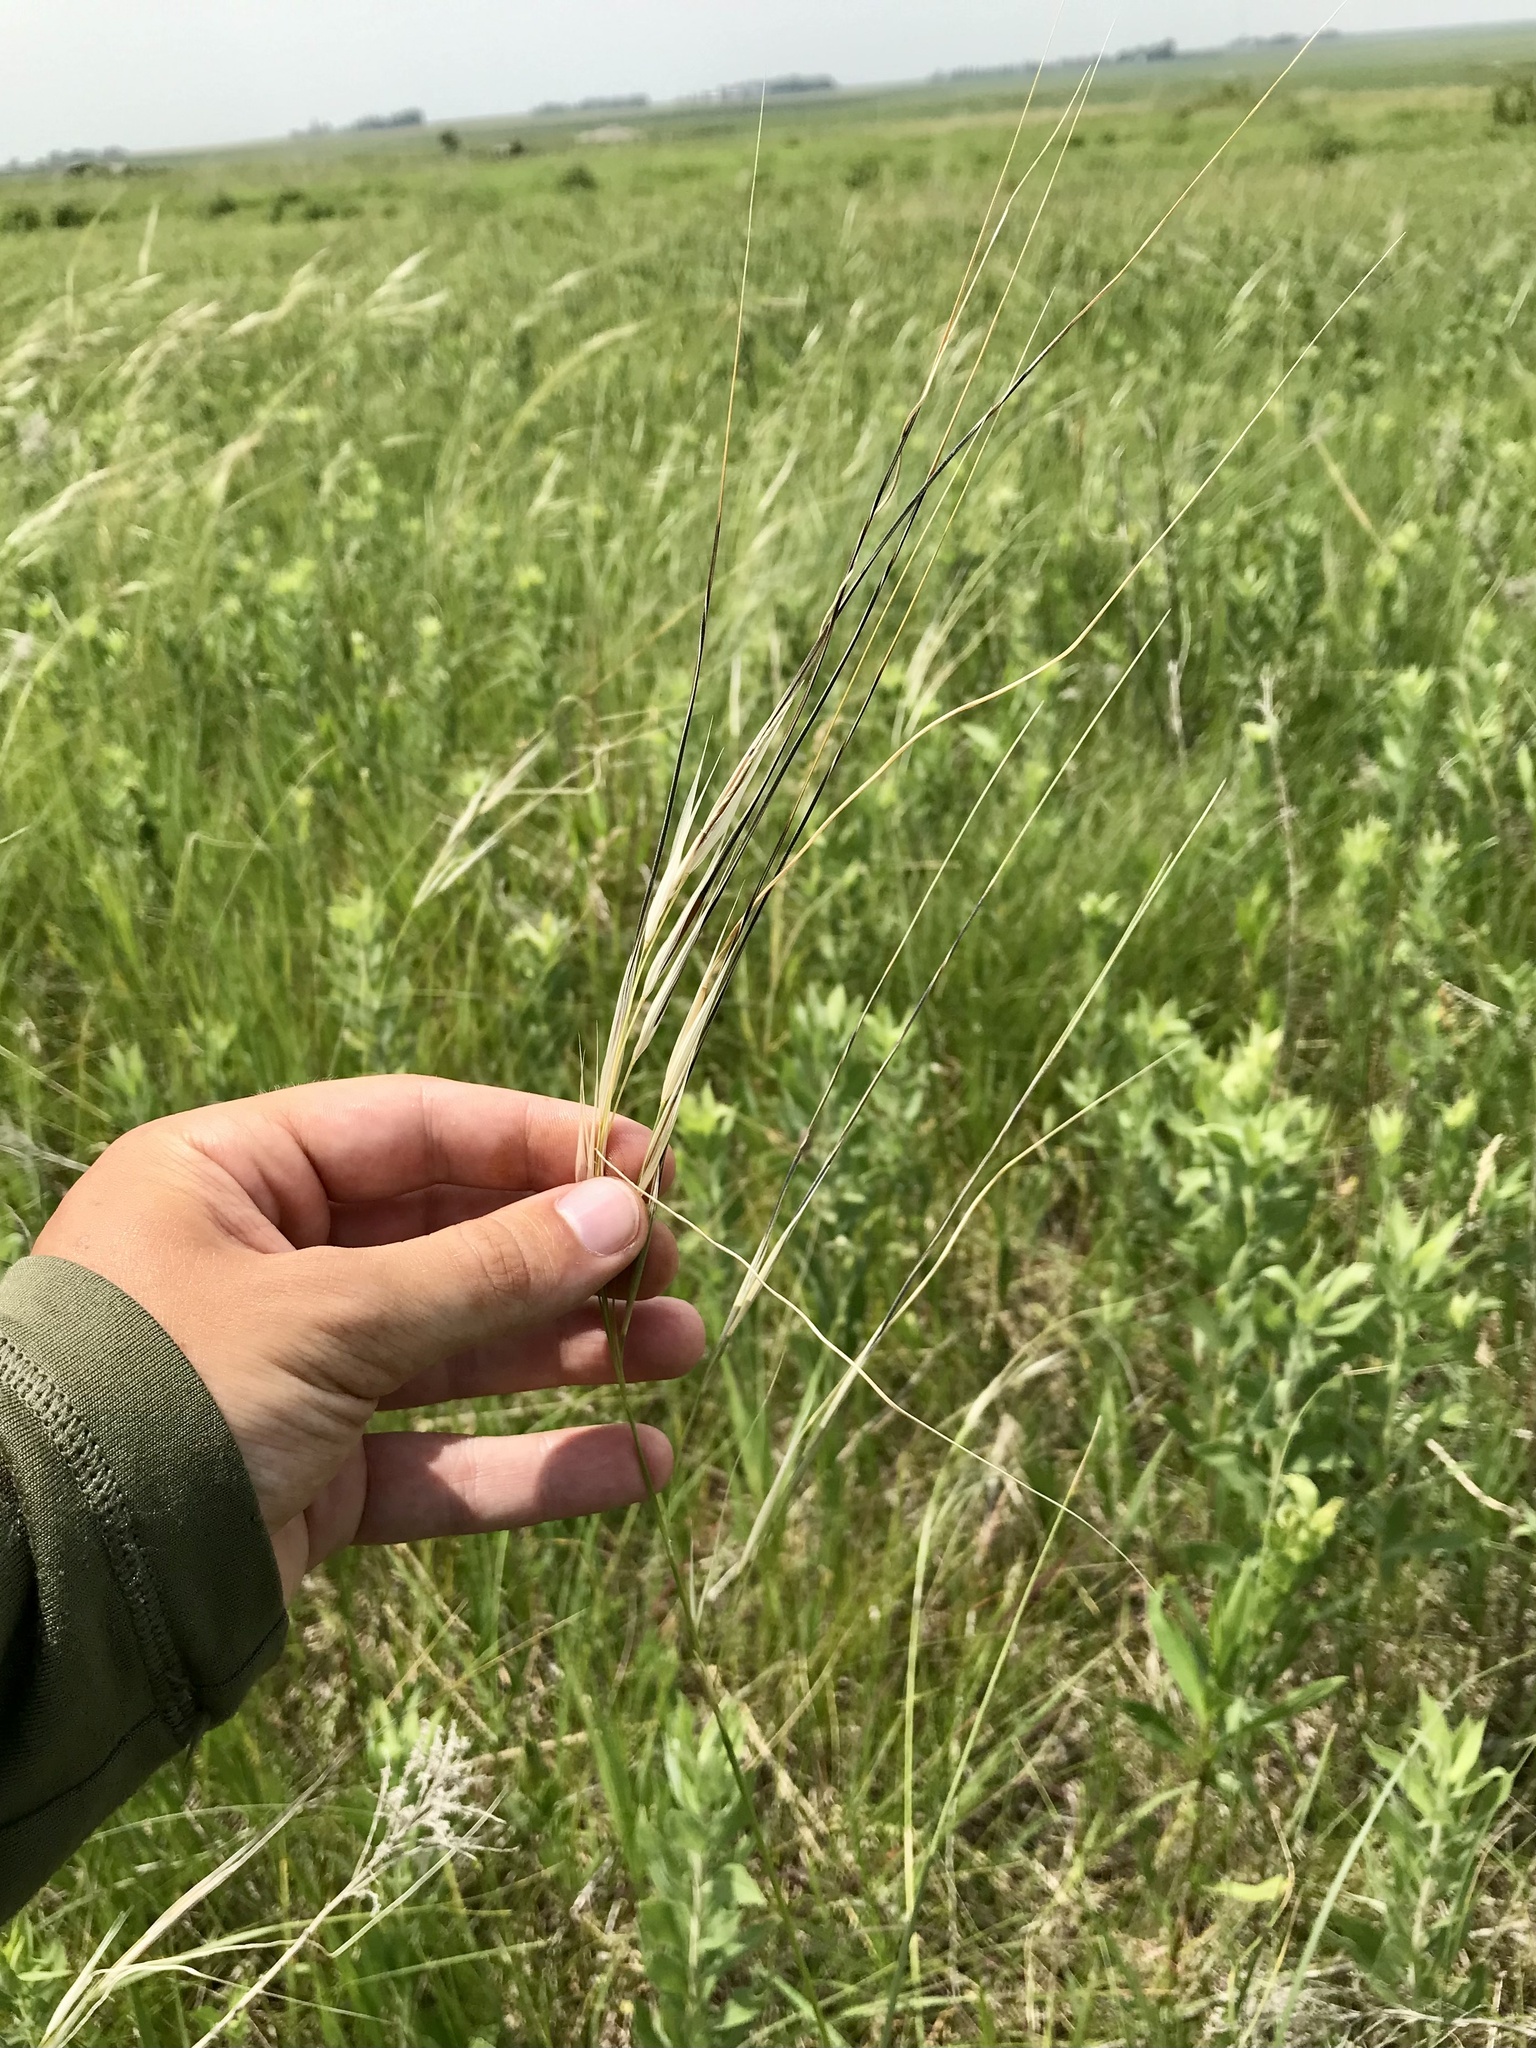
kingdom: Plantae
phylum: Tracheophyta
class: Liliopsida
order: Poales
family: Poaceae
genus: Hesperostipa
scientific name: Hesperostipa spartea
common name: Porcupine grass
